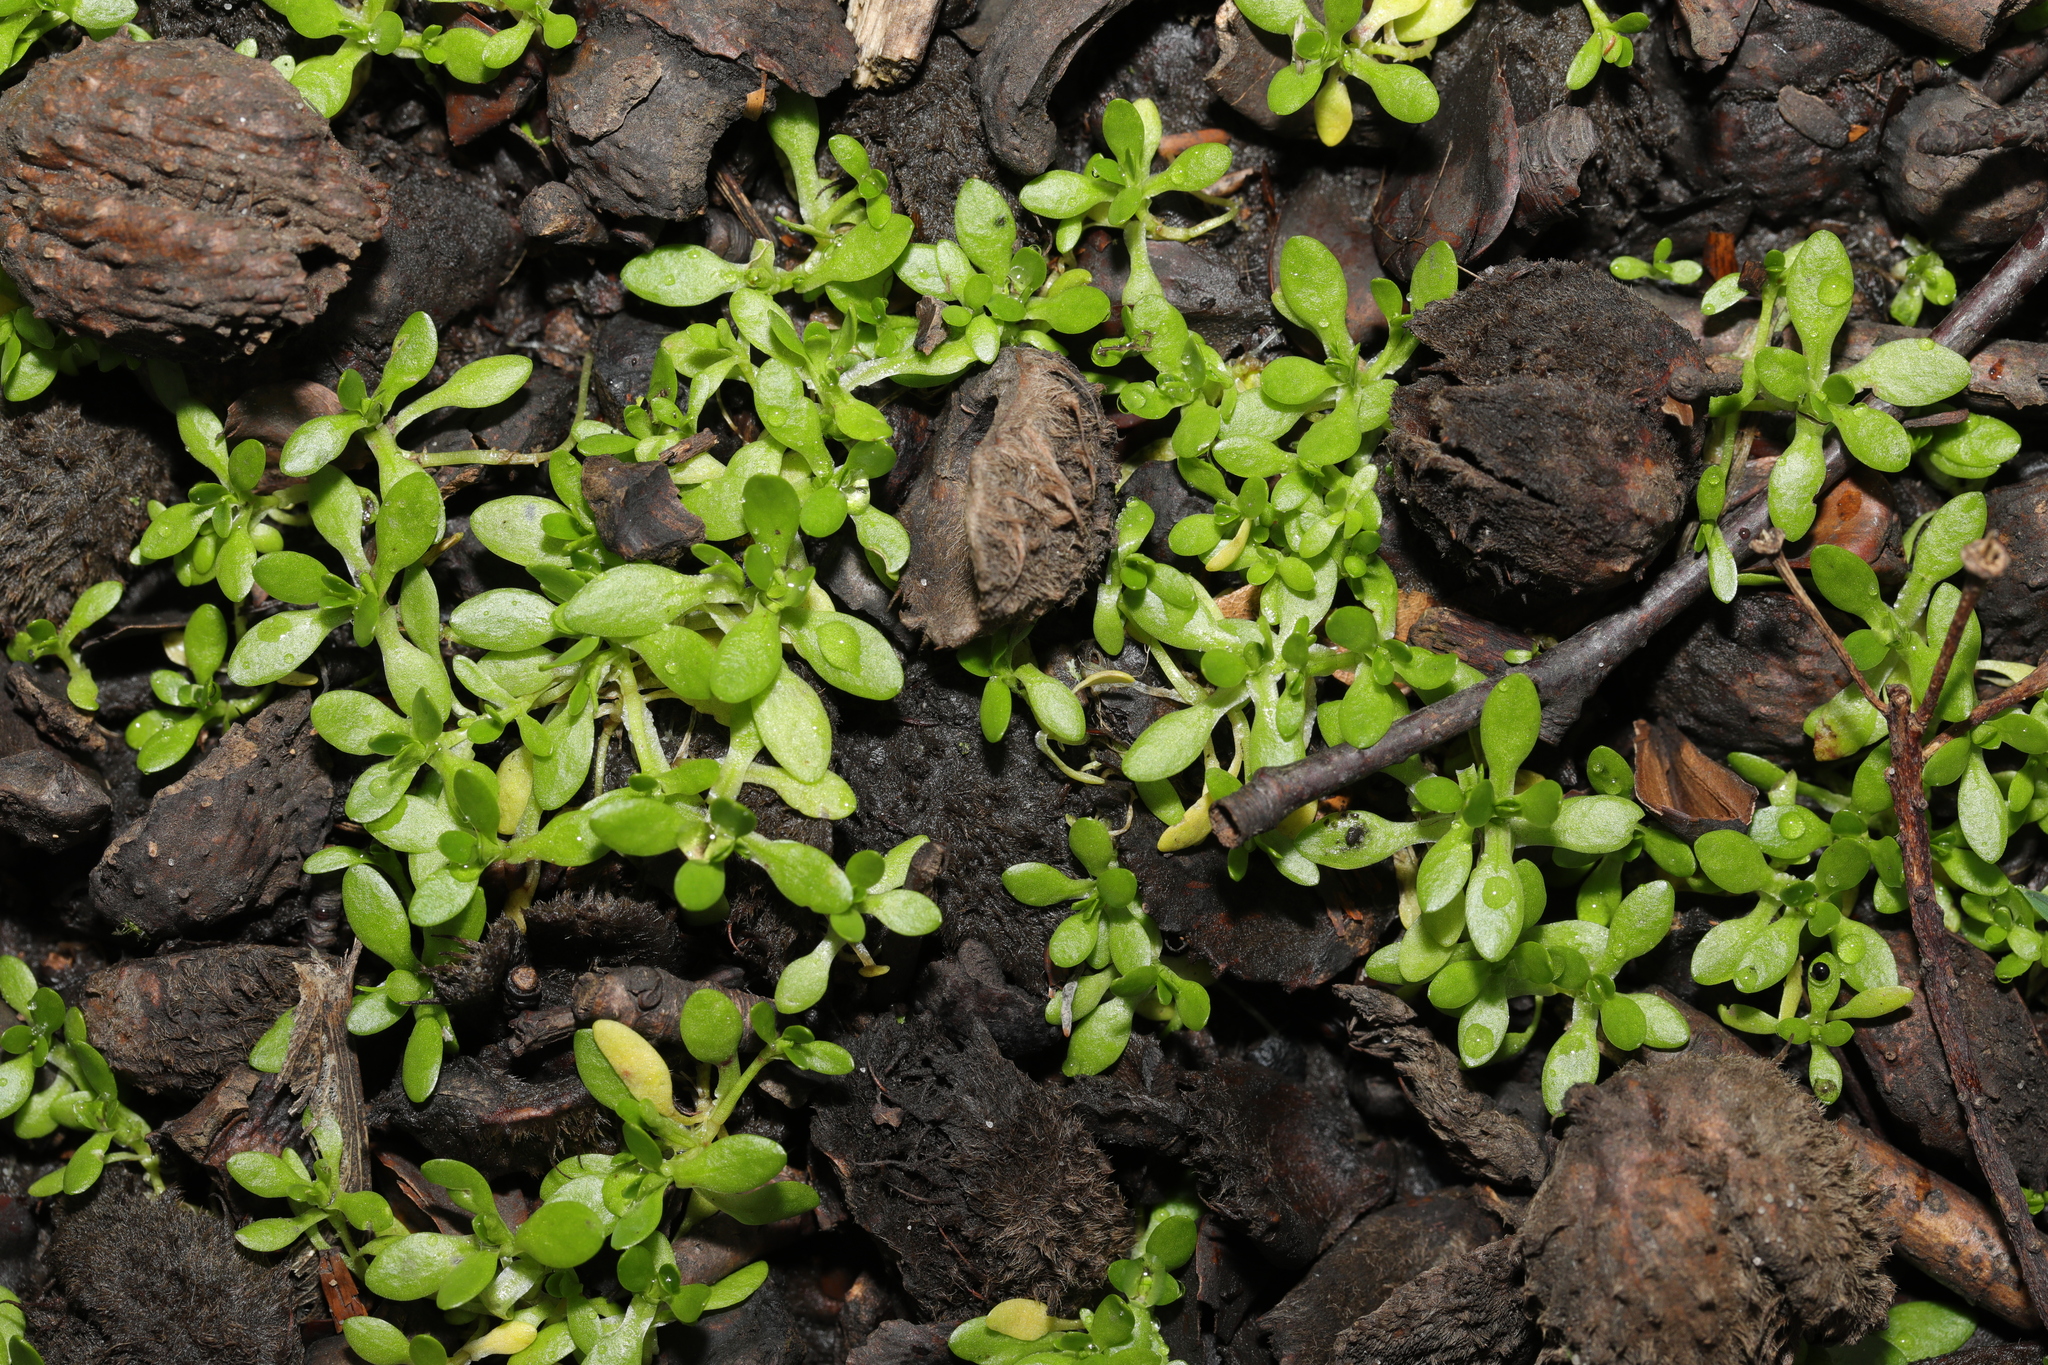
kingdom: Plantae
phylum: Tracheophyta
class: Magnoliopsida
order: Caryophyllales
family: Montiaceae
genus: Montia
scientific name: Montia fontana
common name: Blinks
